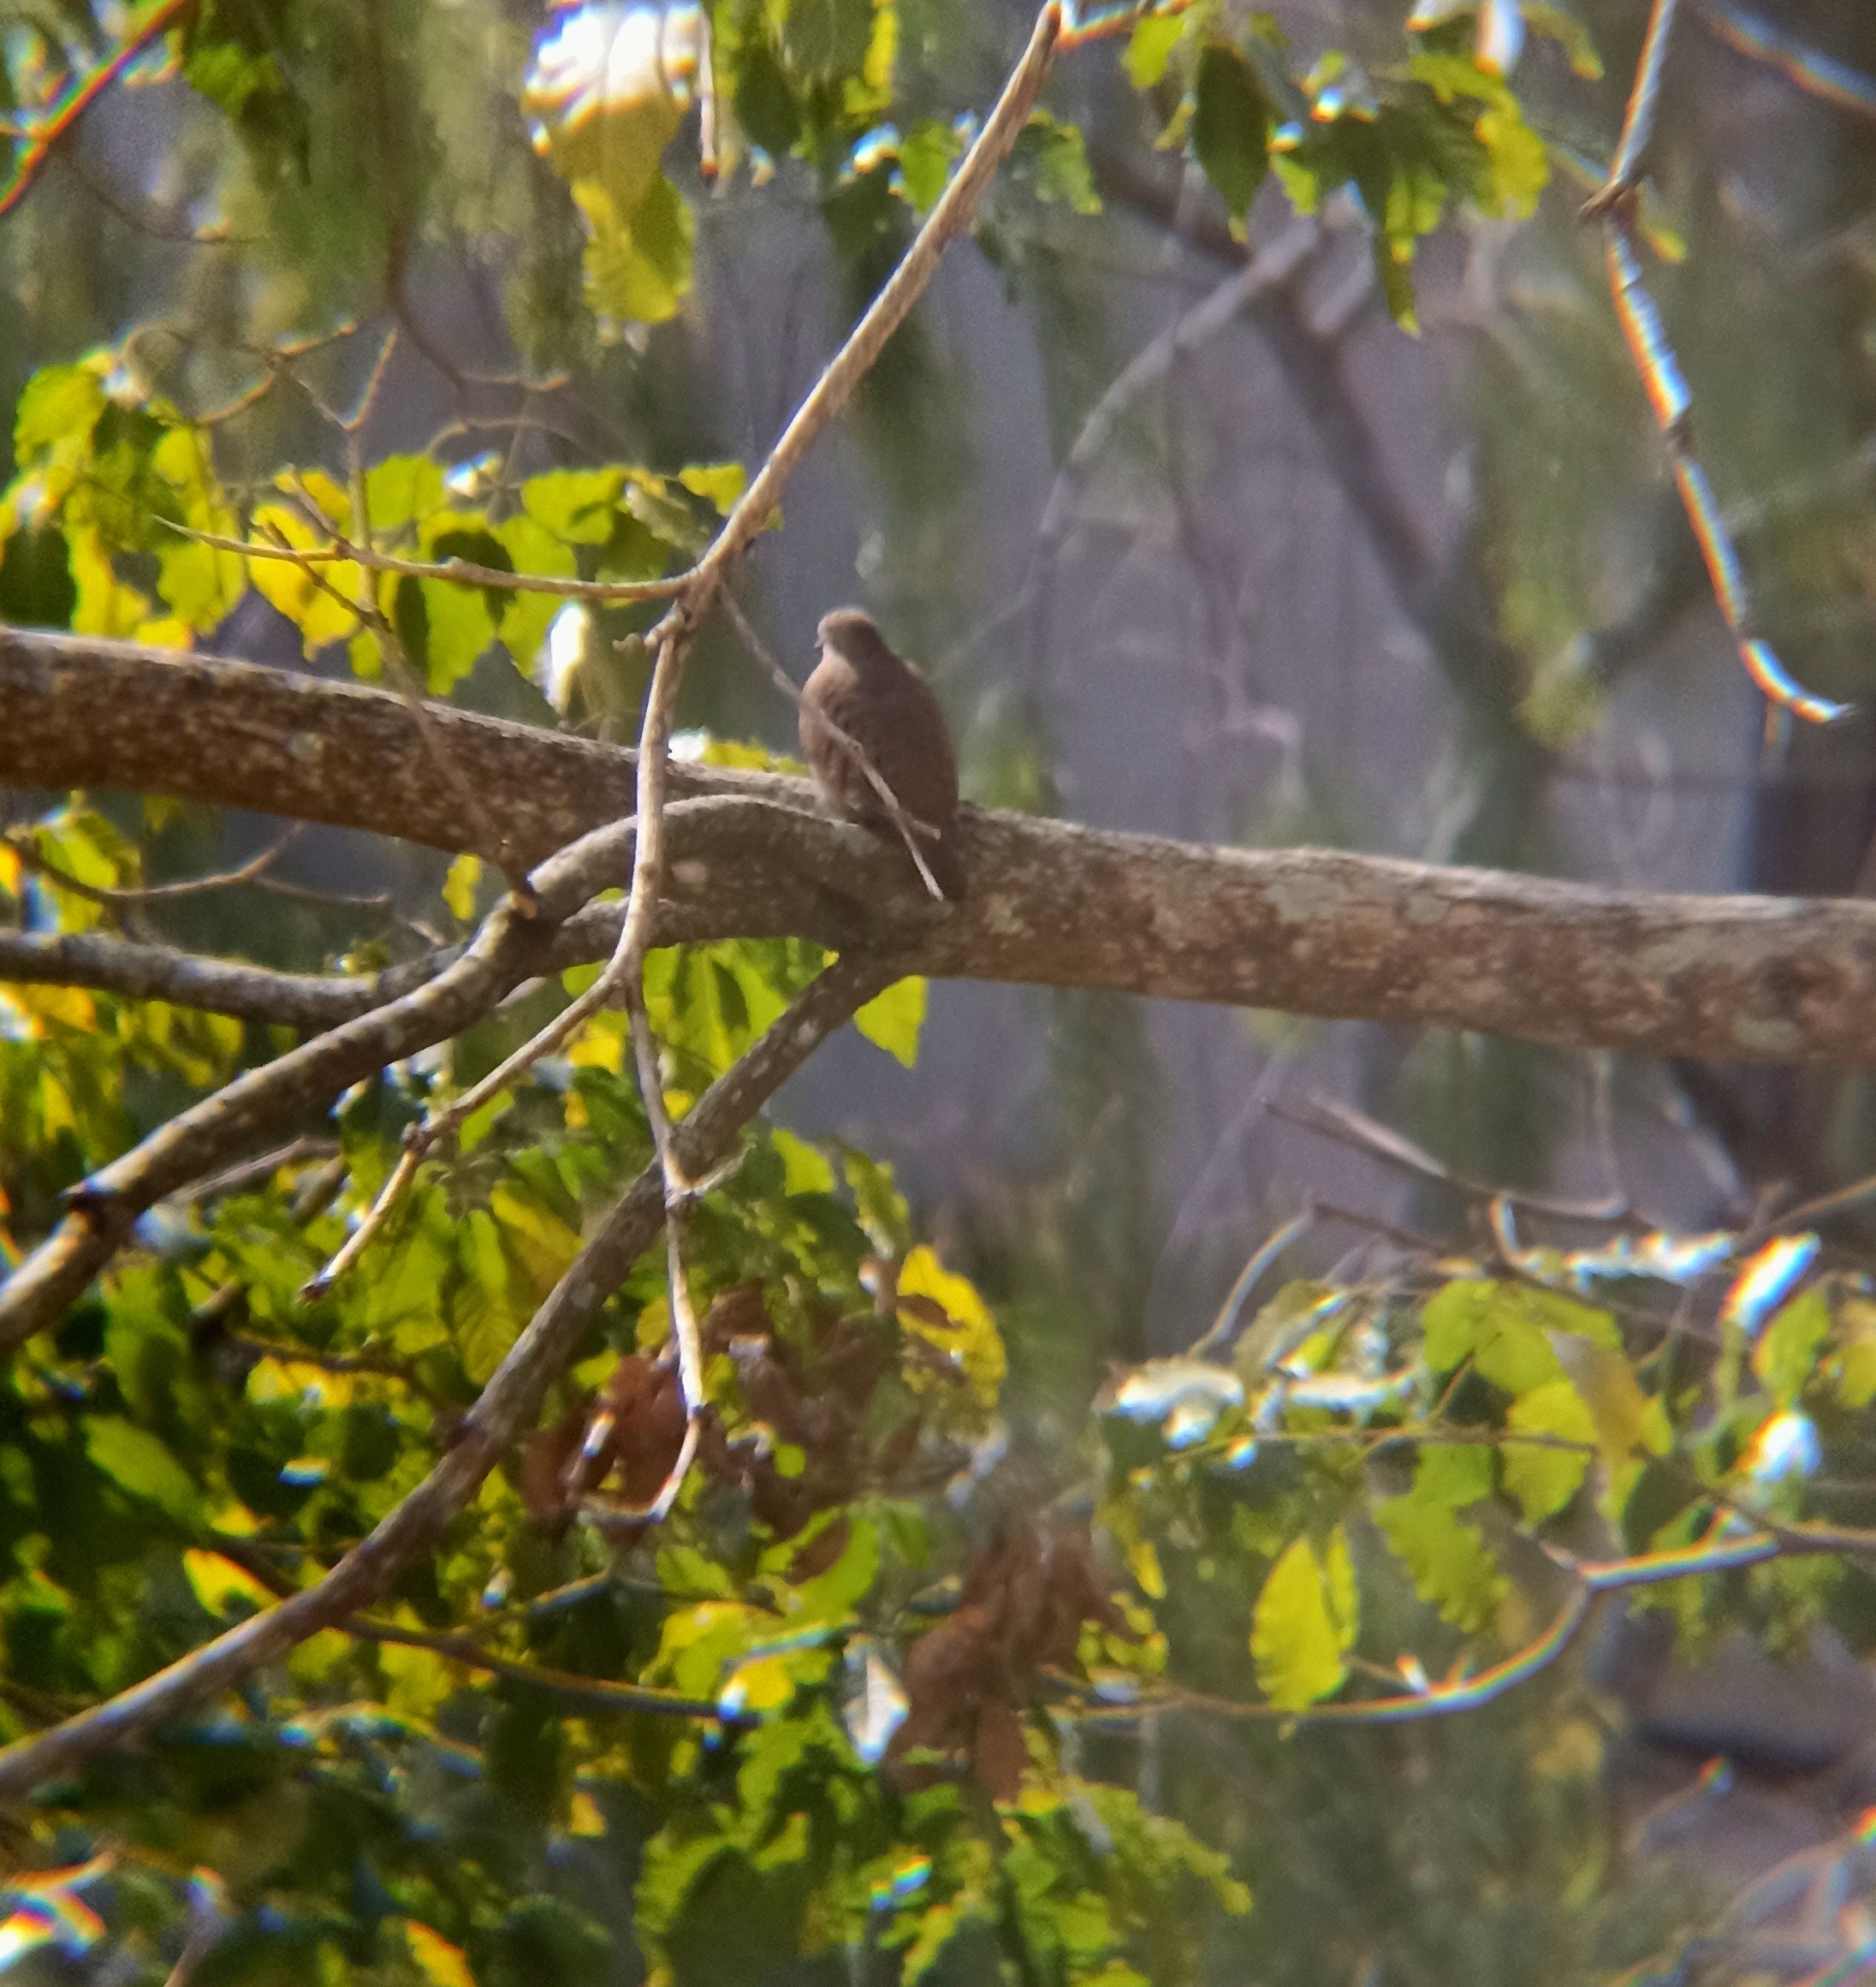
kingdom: Animalia
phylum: Chordata
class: Aves
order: Columbiformes
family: Columbidae
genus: Columbina
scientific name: Columbina talpacoti
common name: Ruddy ground dove
